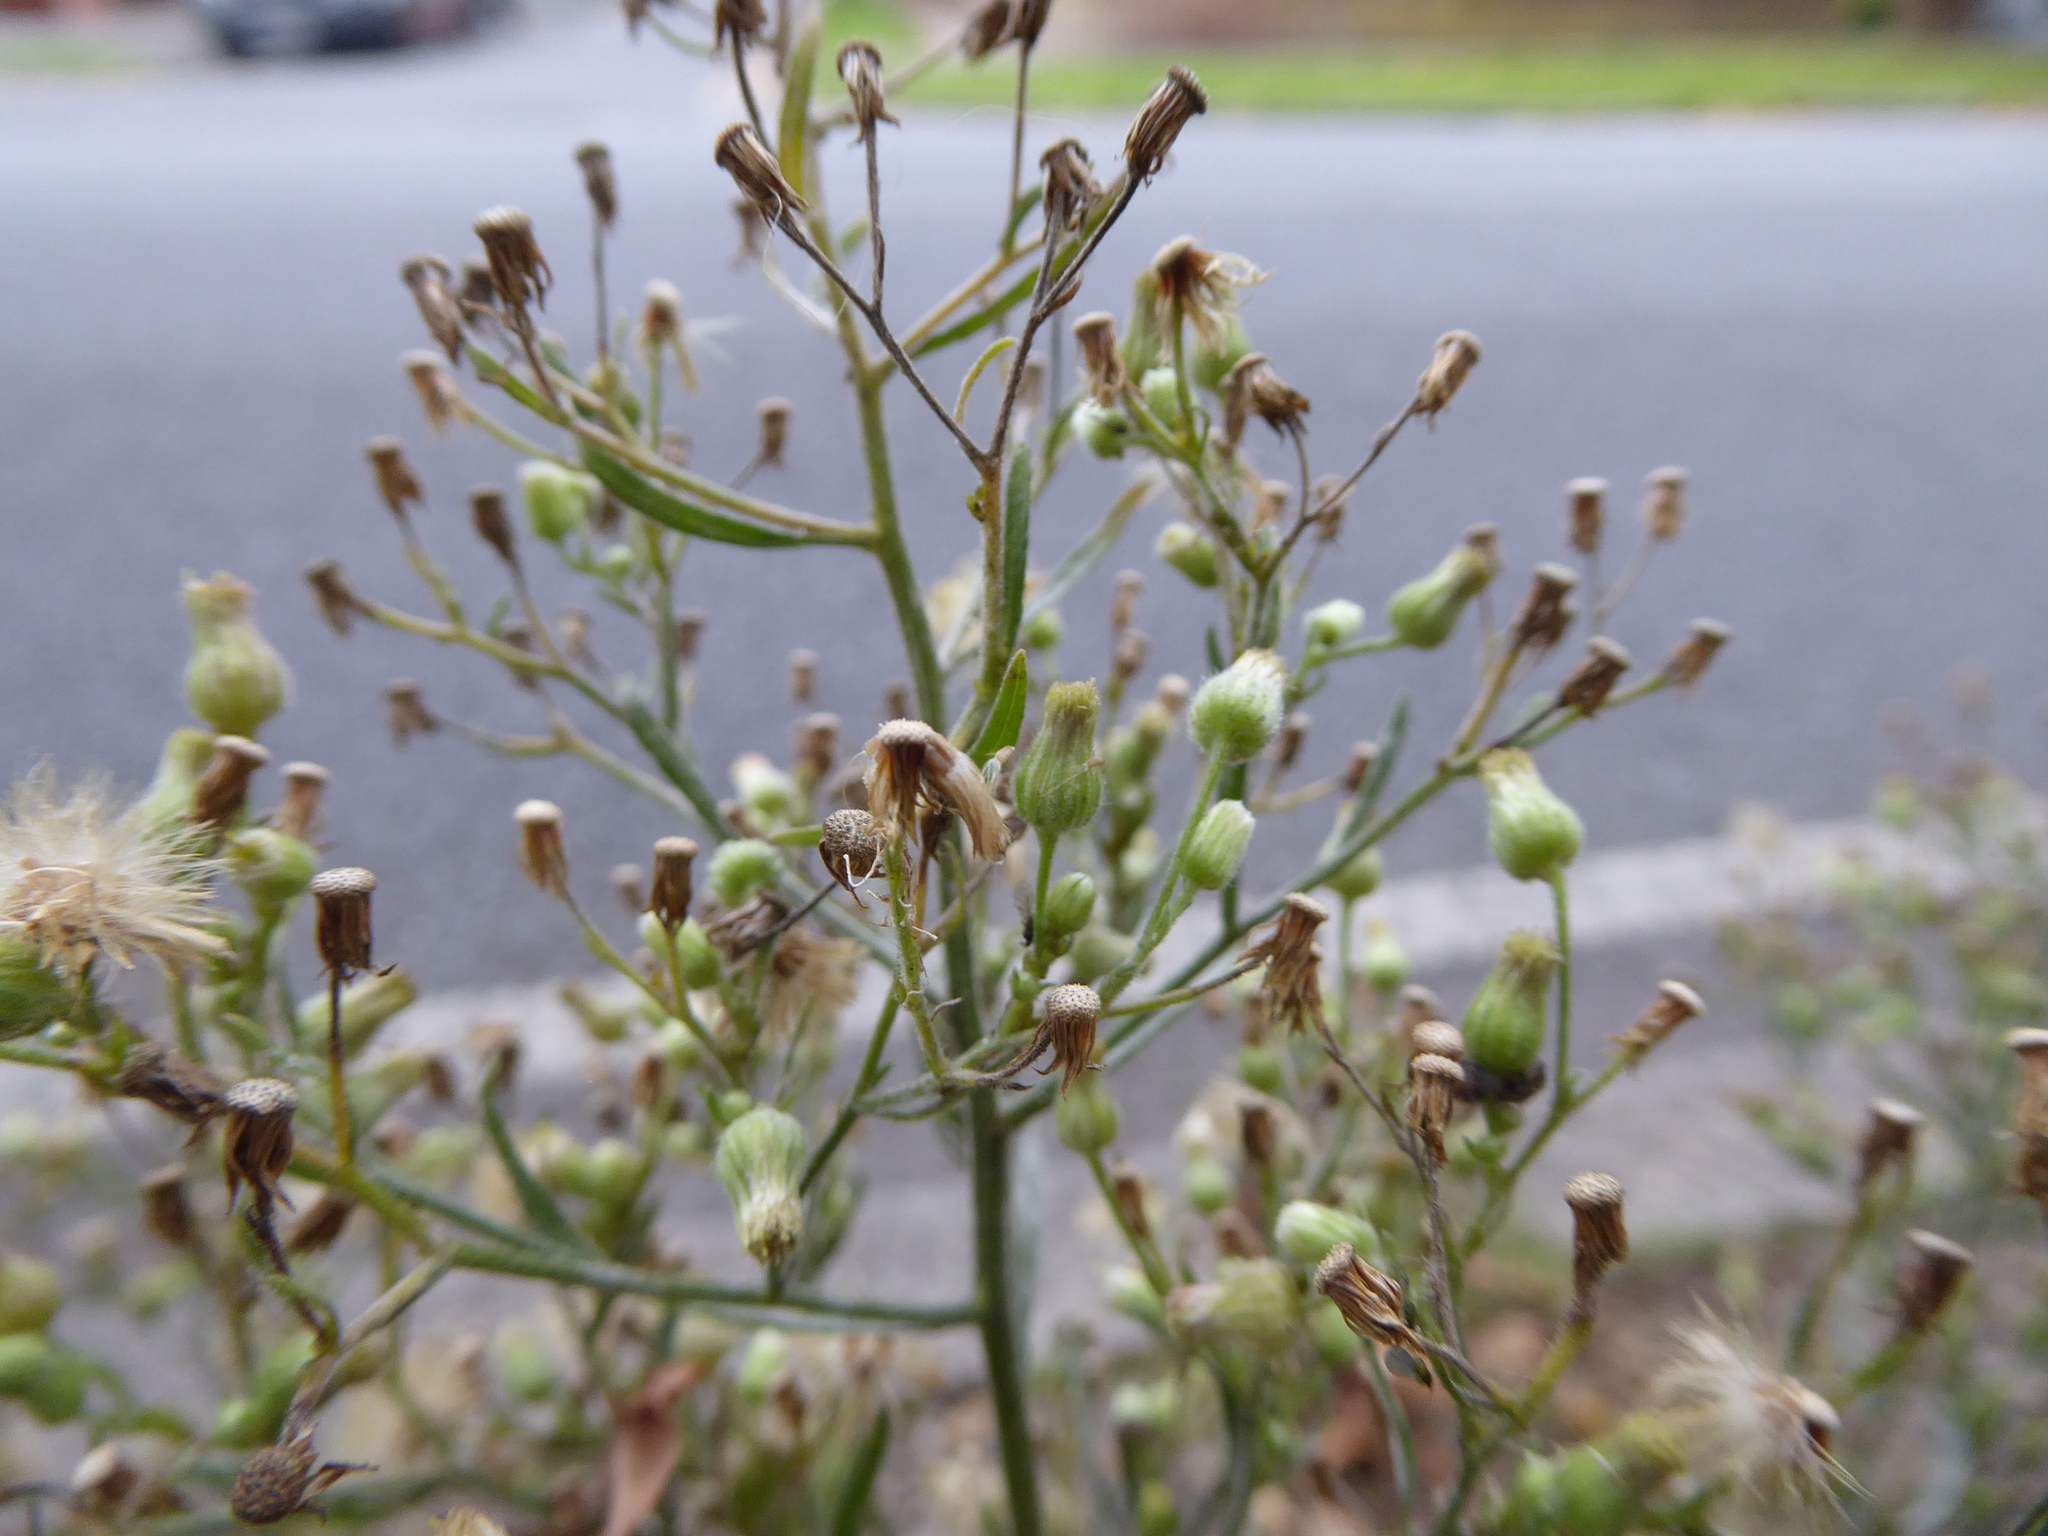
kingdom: Plantae
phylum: Tracheophyta
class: Magnoliopsida
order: Asterales
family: Asteraceae
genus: Erigeron
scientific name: Erigeron sumatrensis
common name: Daisy
